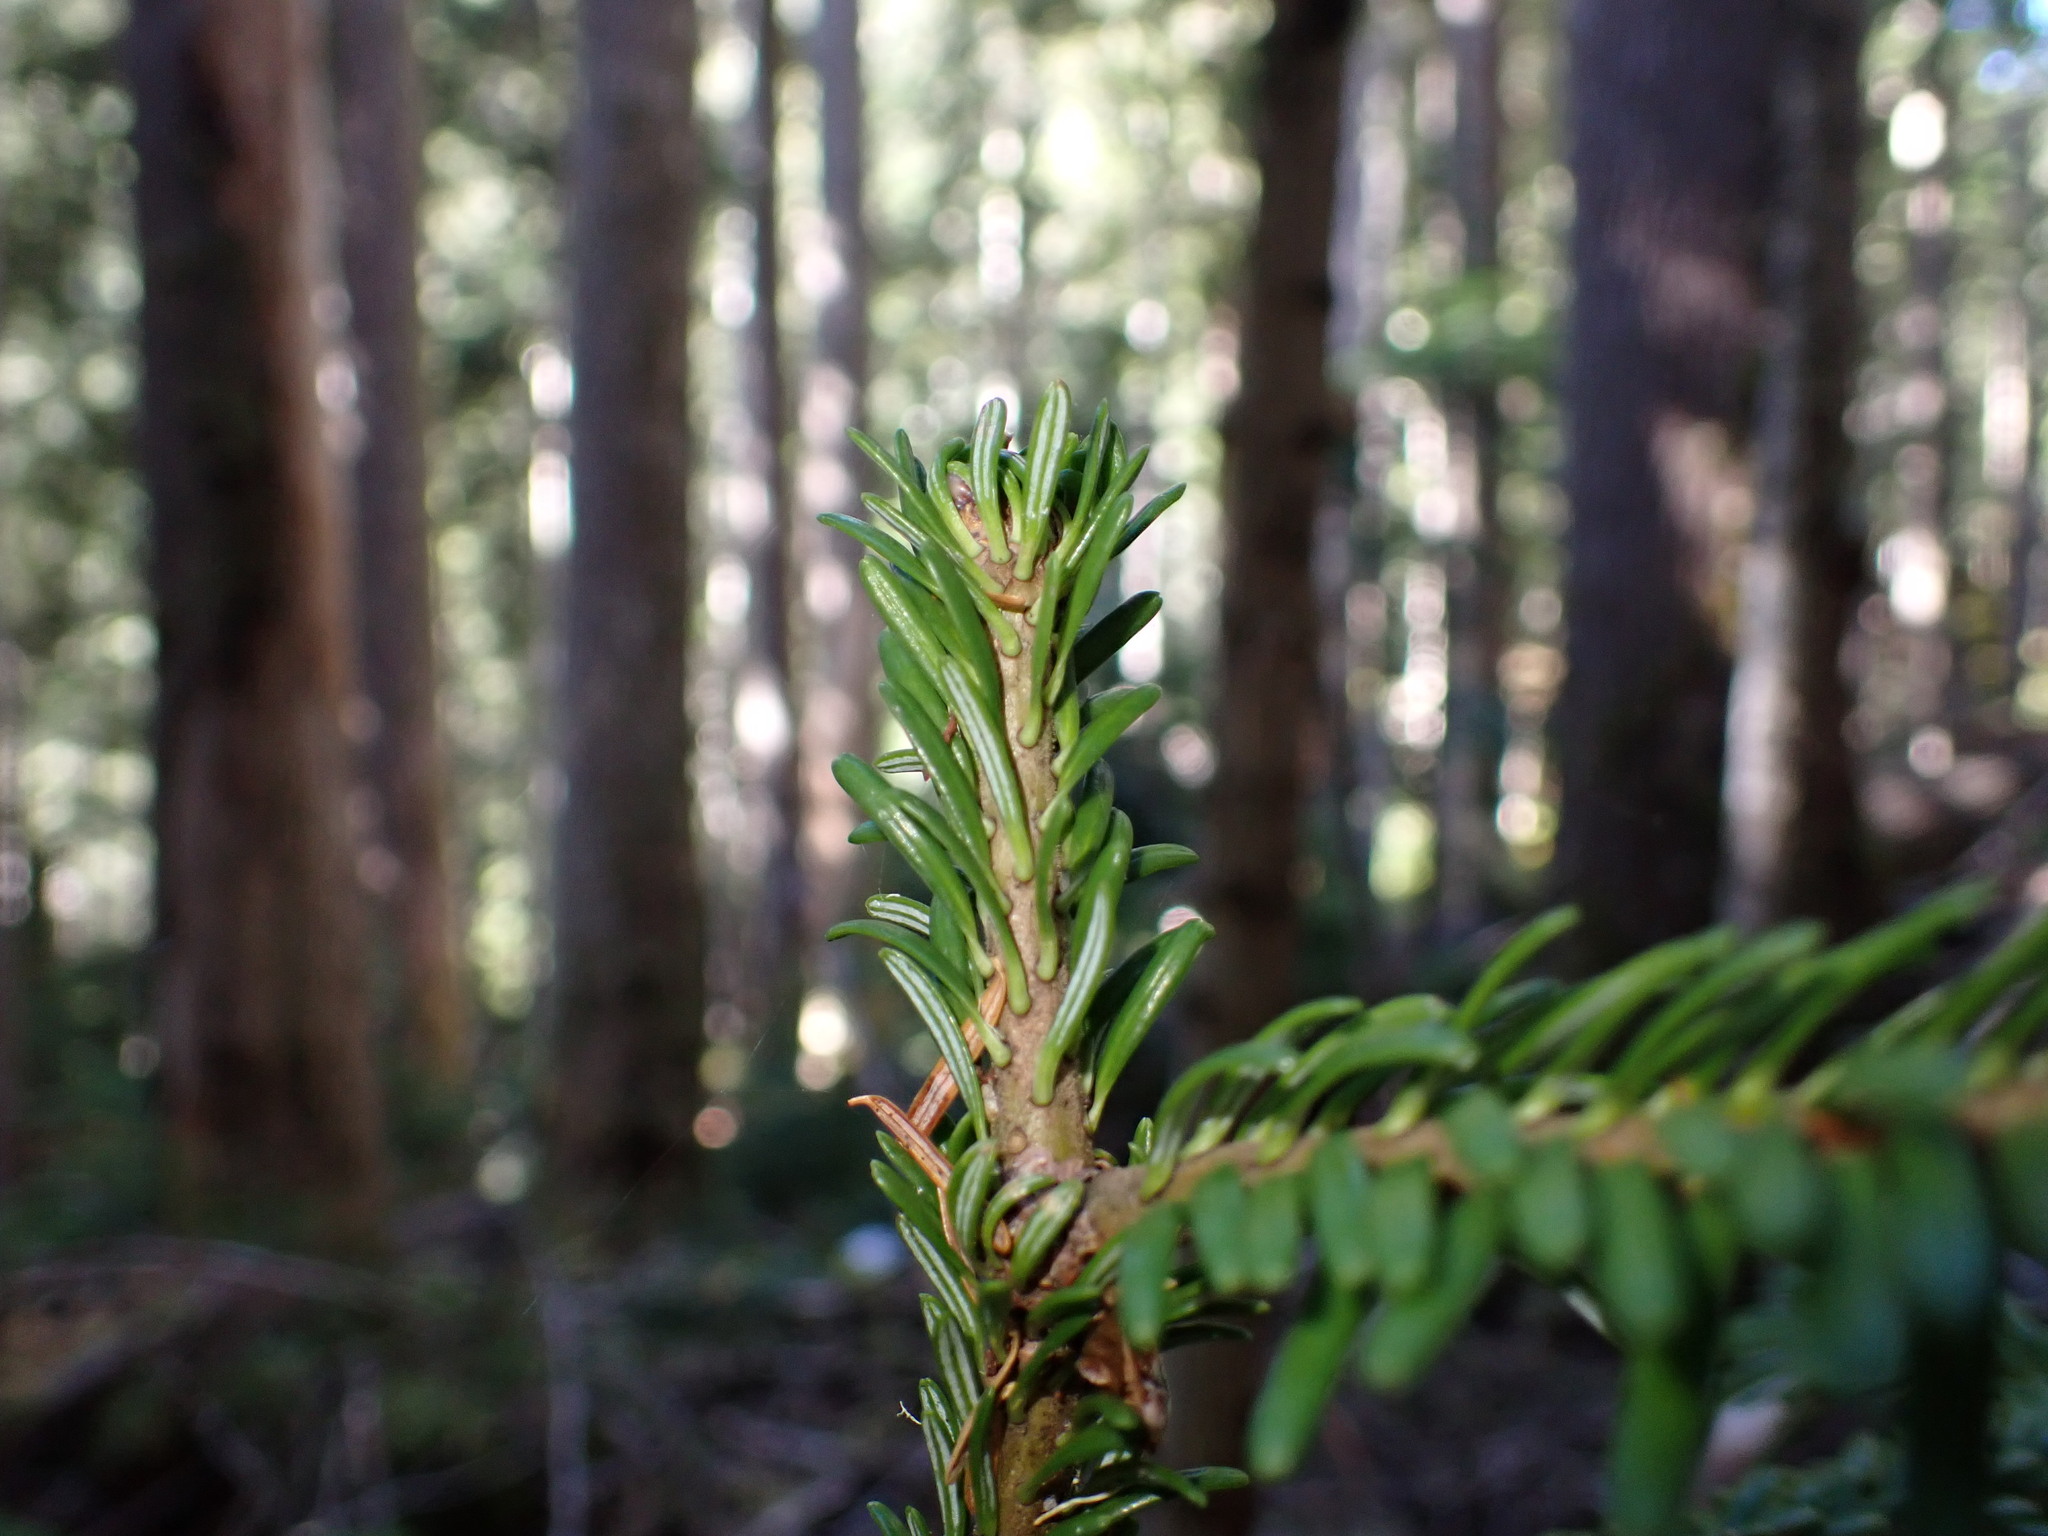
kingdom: Plantae
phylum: Tracheophyta
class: Pinopsida
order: Pinales
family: Pinaceae
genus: Abies
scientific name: Abies amabilis
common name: Pacific silver fir
